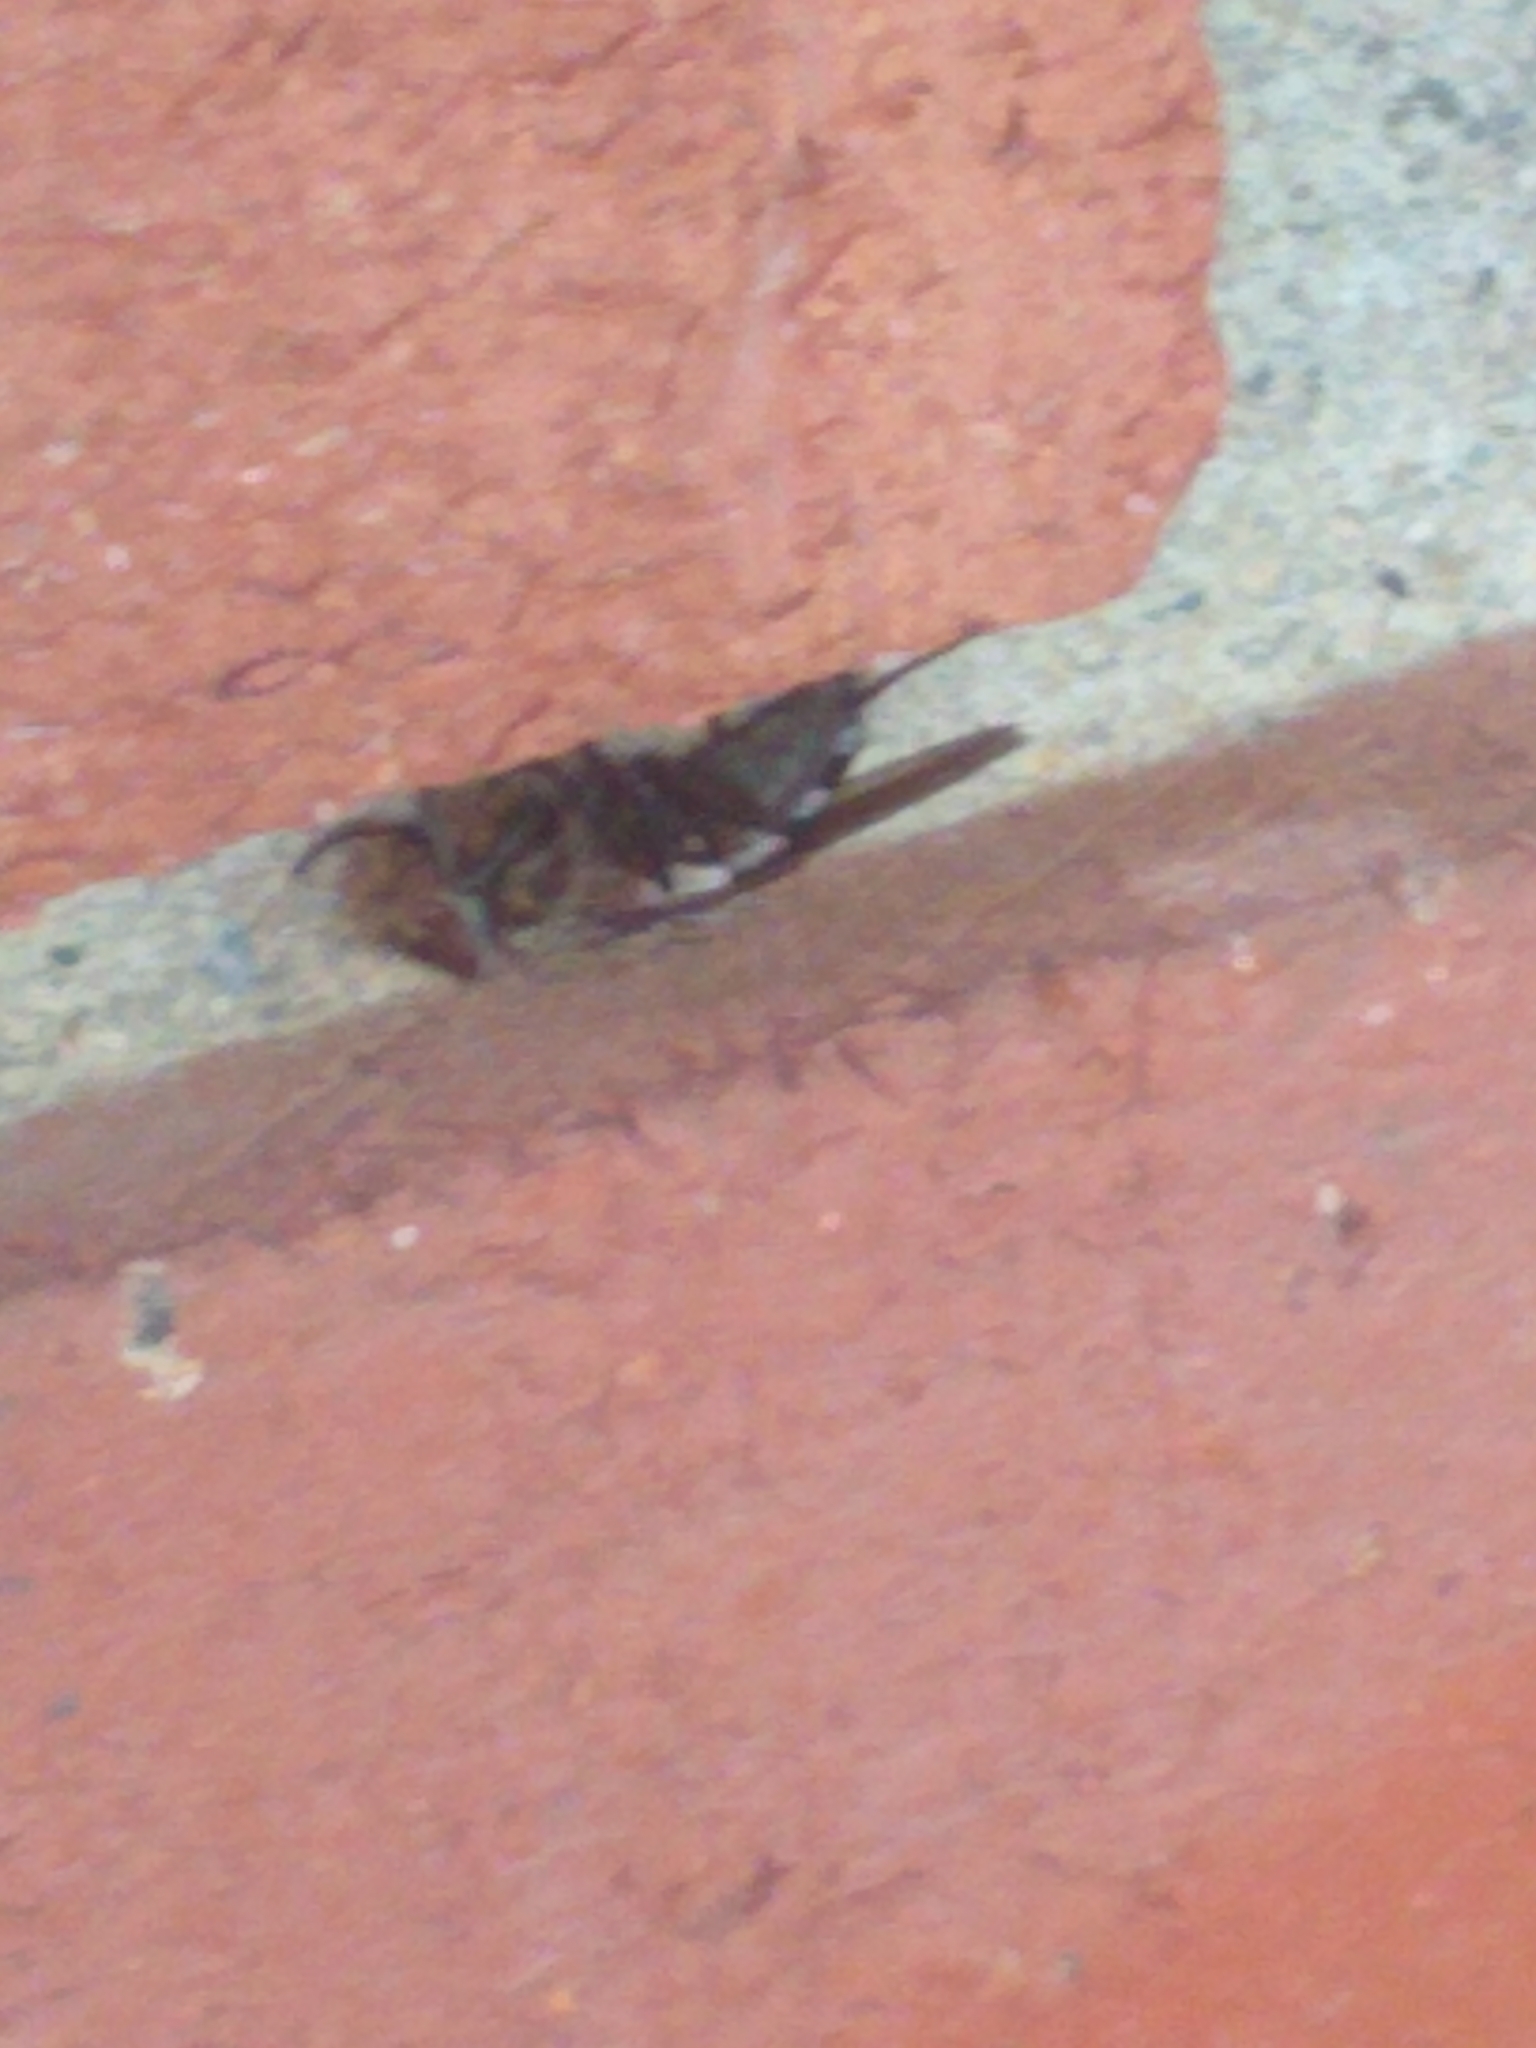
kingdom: Animalia
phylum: Arthropoda
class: Insecta
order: Diptera
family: Polleniidae
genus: Pollenia
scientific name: Pollenia
